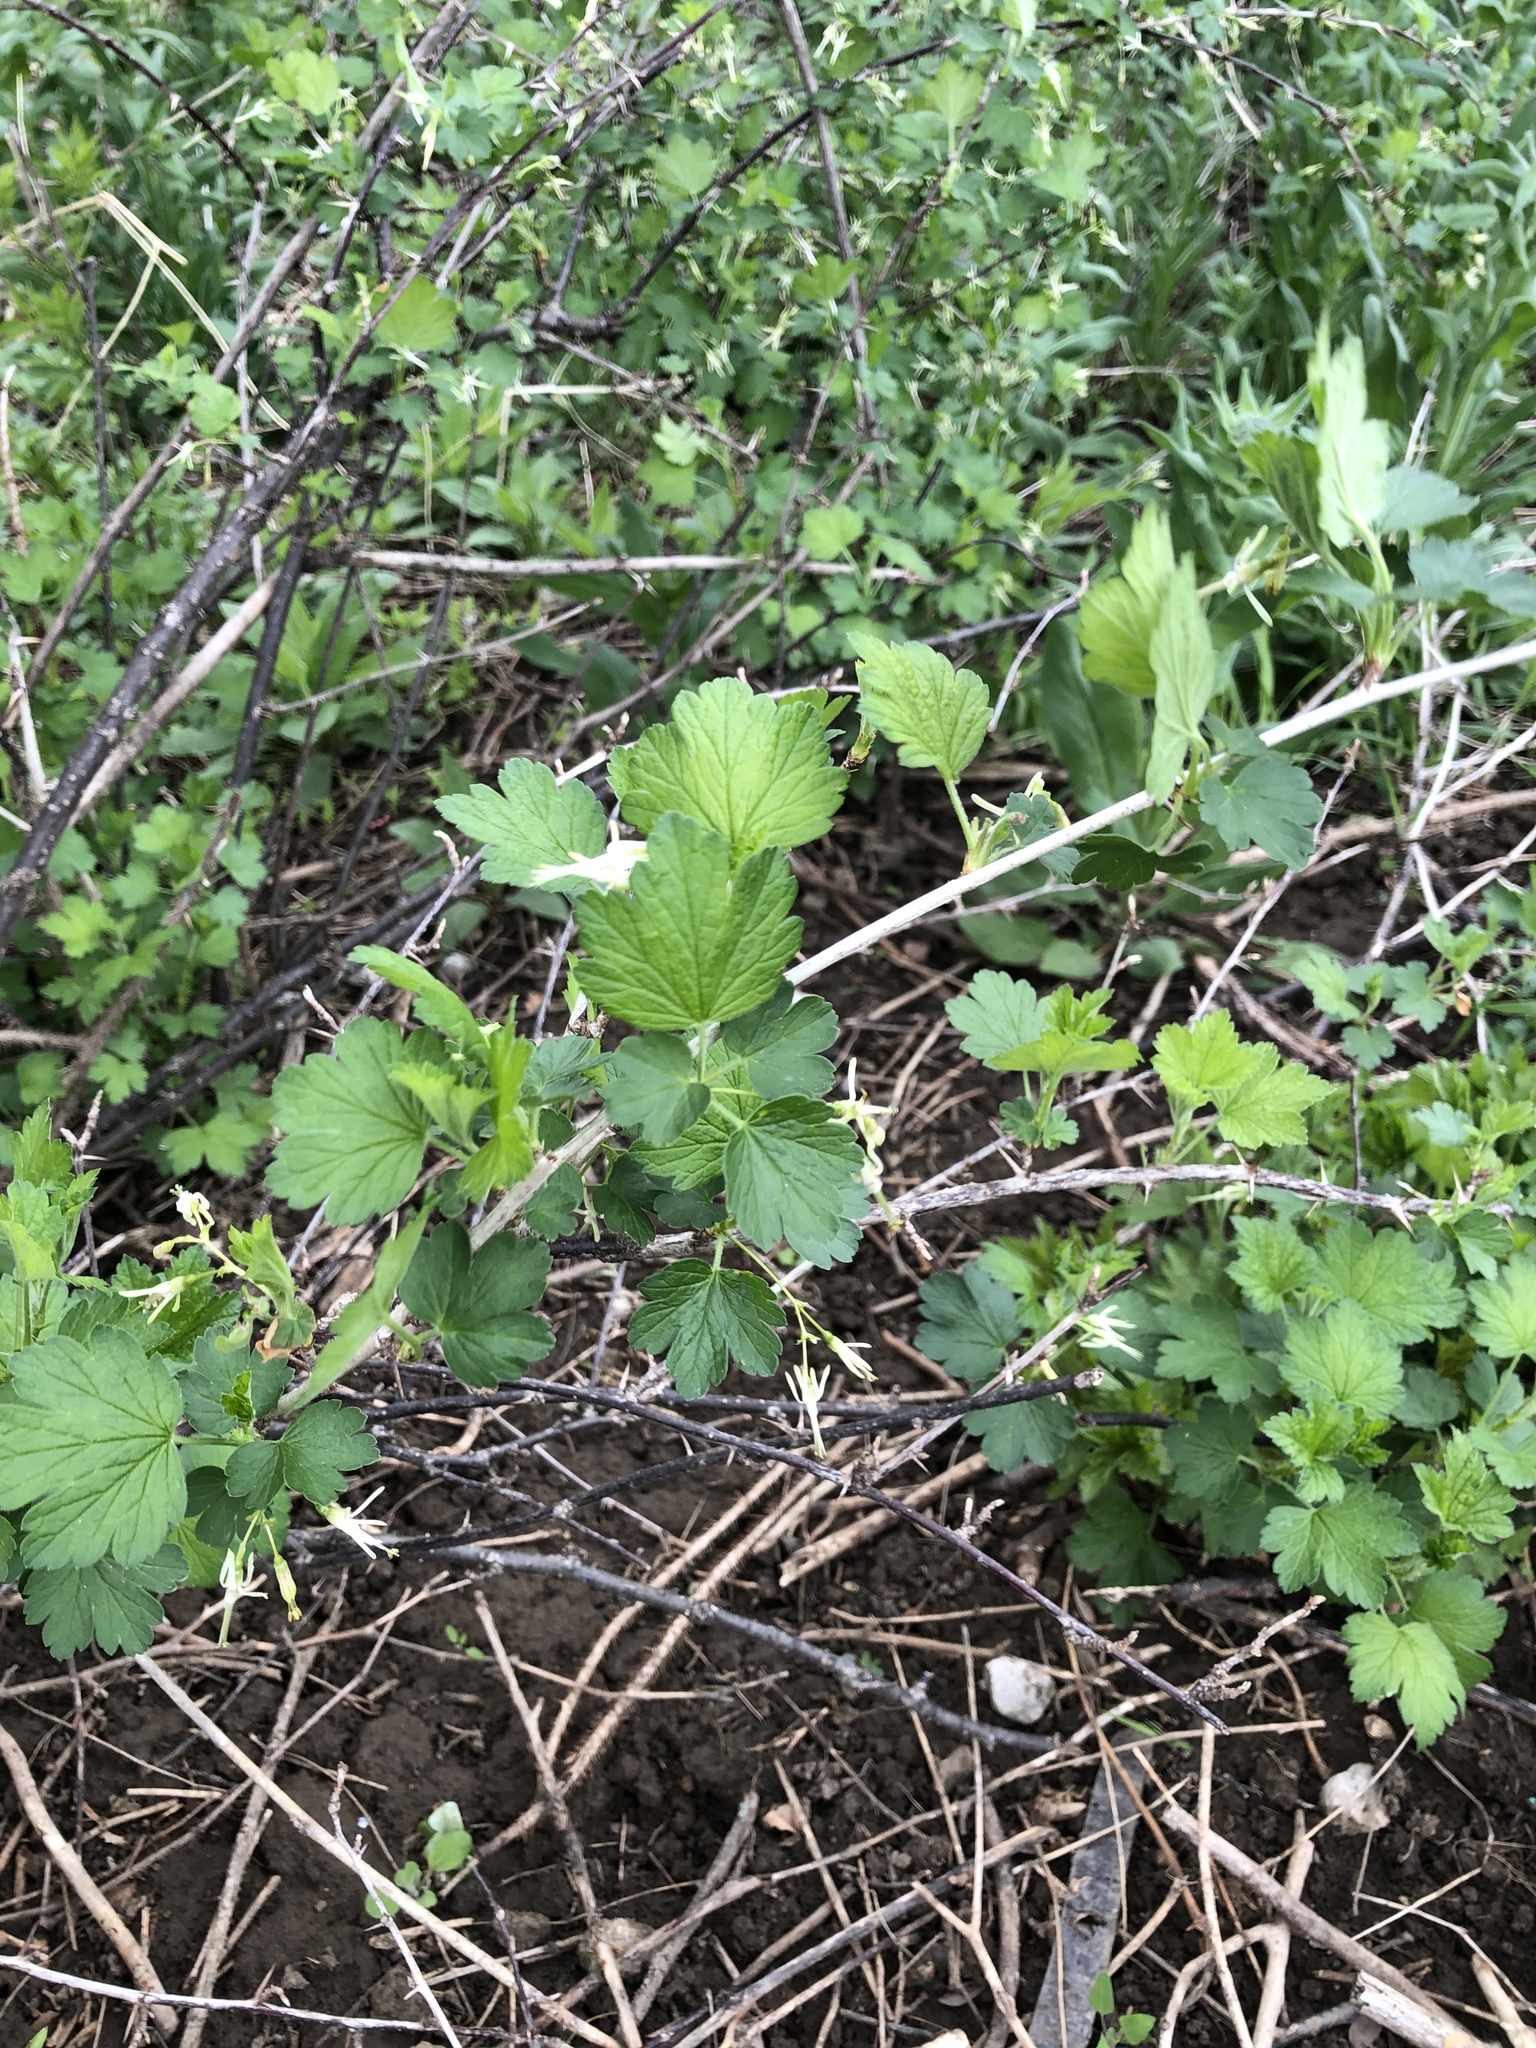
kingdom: Plantae
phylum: Tracheophyta
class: Magnoliopsida
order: Saxifragales
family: Grossulariaceae
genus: Ribes
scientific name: Ribes missouriense
